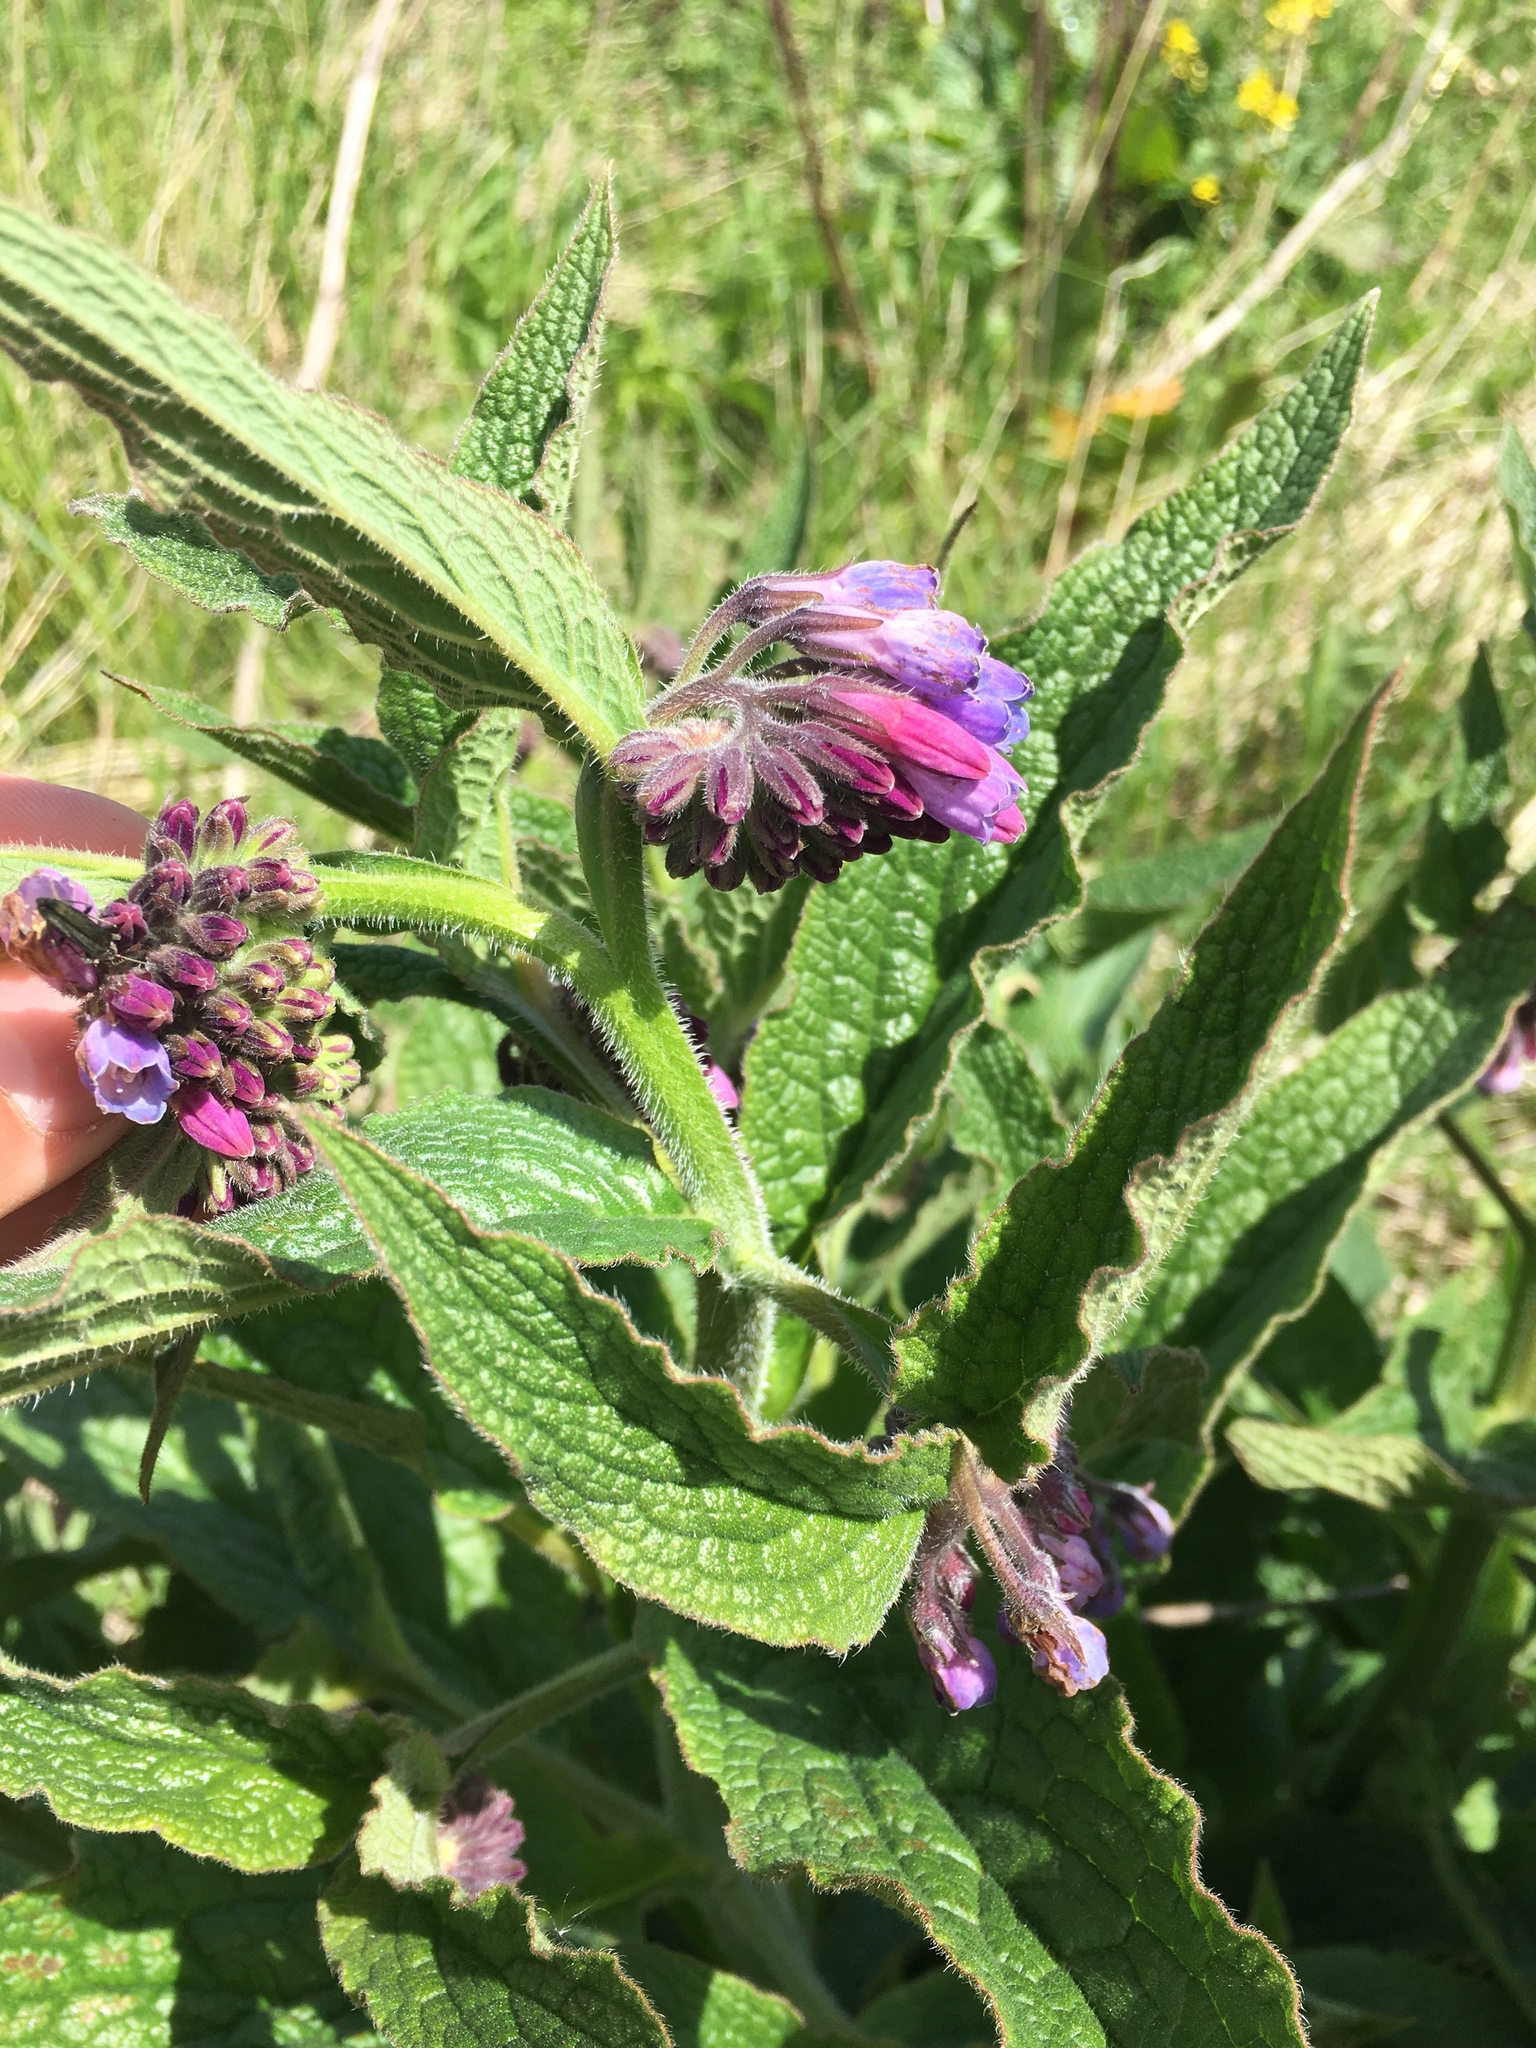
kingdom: Plantae
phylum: Tracheophyta
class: Magnoliopsida
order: Boraginales
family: Boraginaceae
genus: Symphytum
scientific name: Symphytum uplandicum
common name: Russian comfrey
